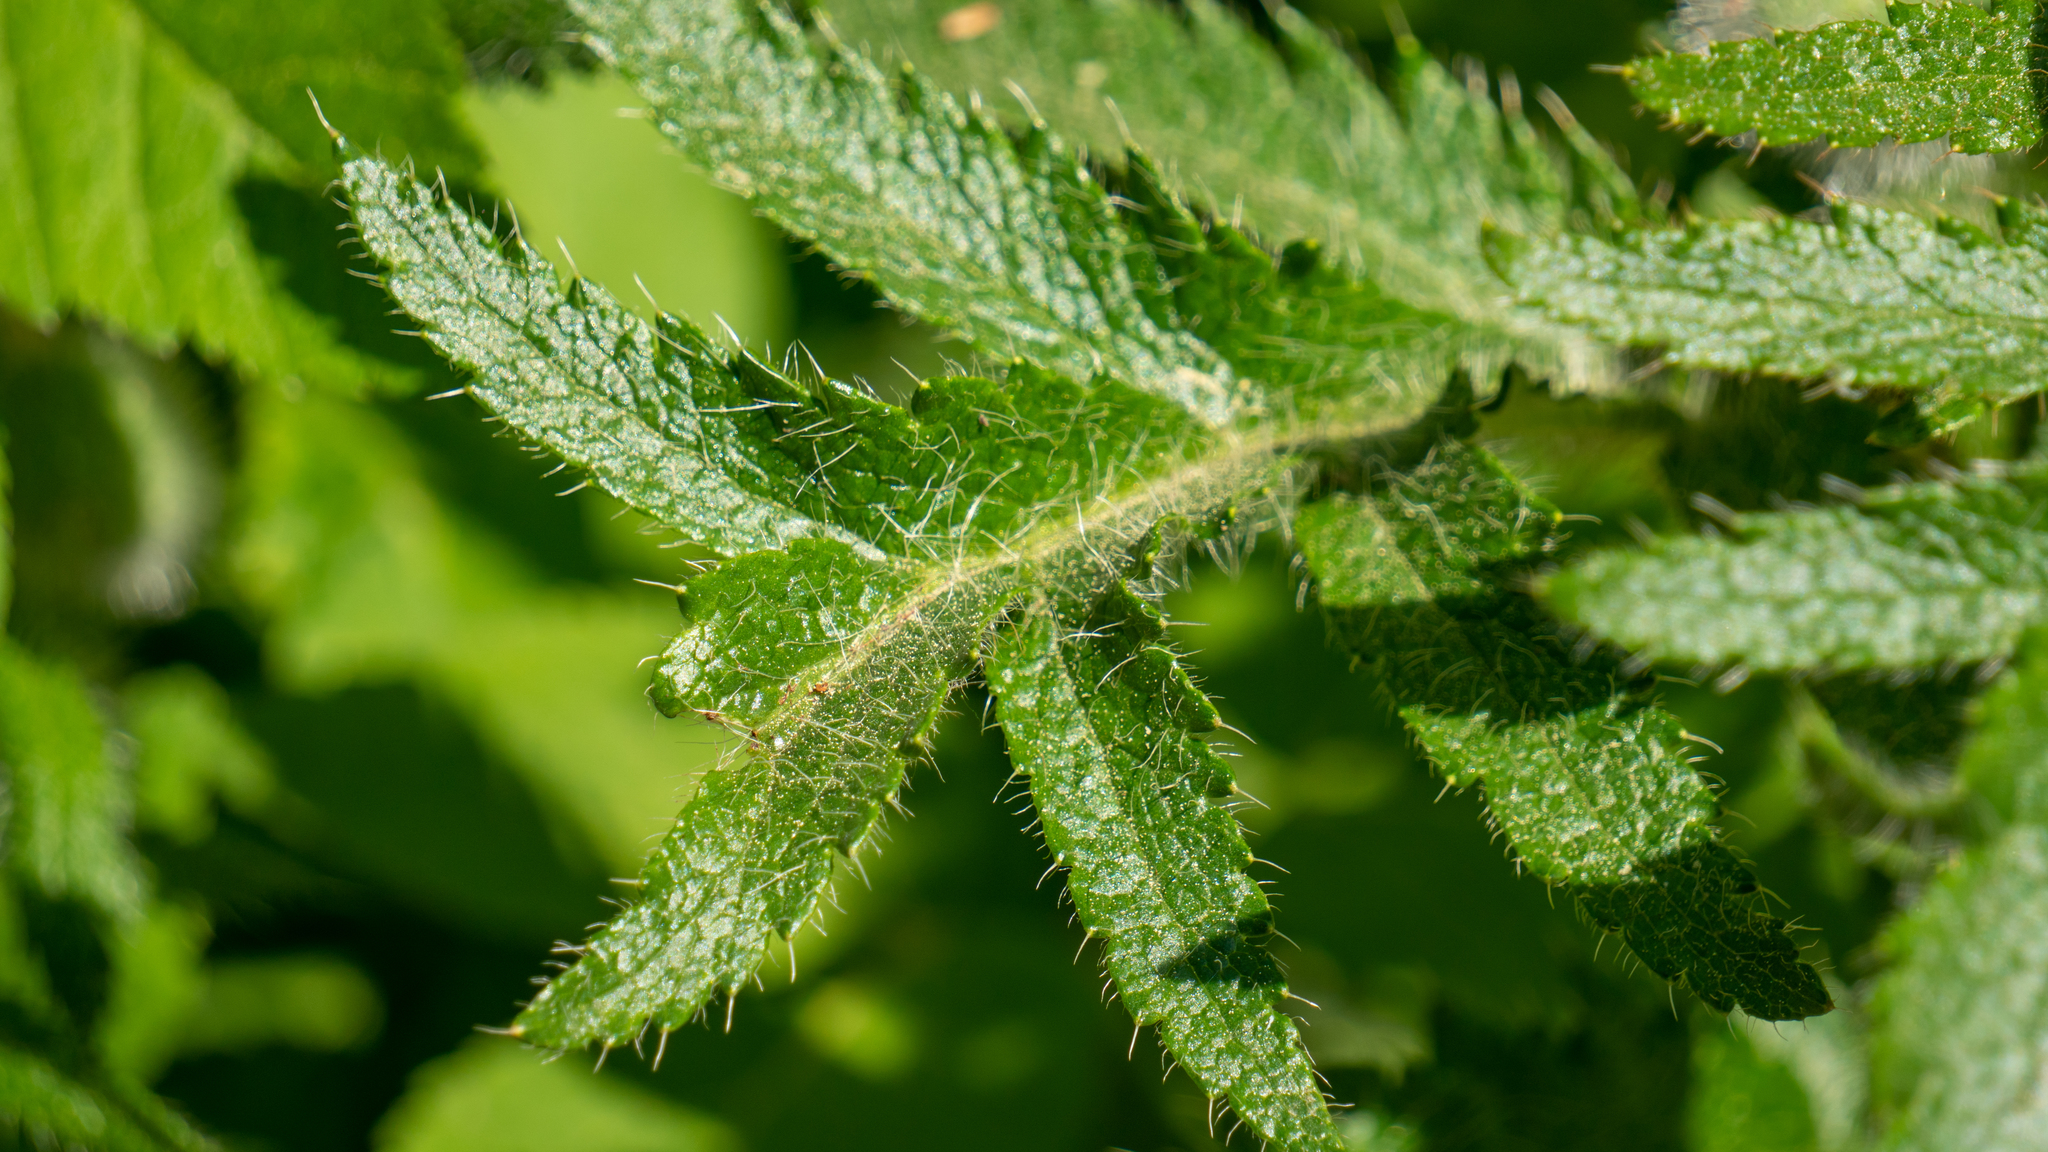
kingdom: Plantae
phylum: Tracheophyta
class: Magnoliopsida
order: Ranunculales
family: Papaveraceae
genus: Papaver
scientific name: Papaver orientale
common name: Oriental poppy
